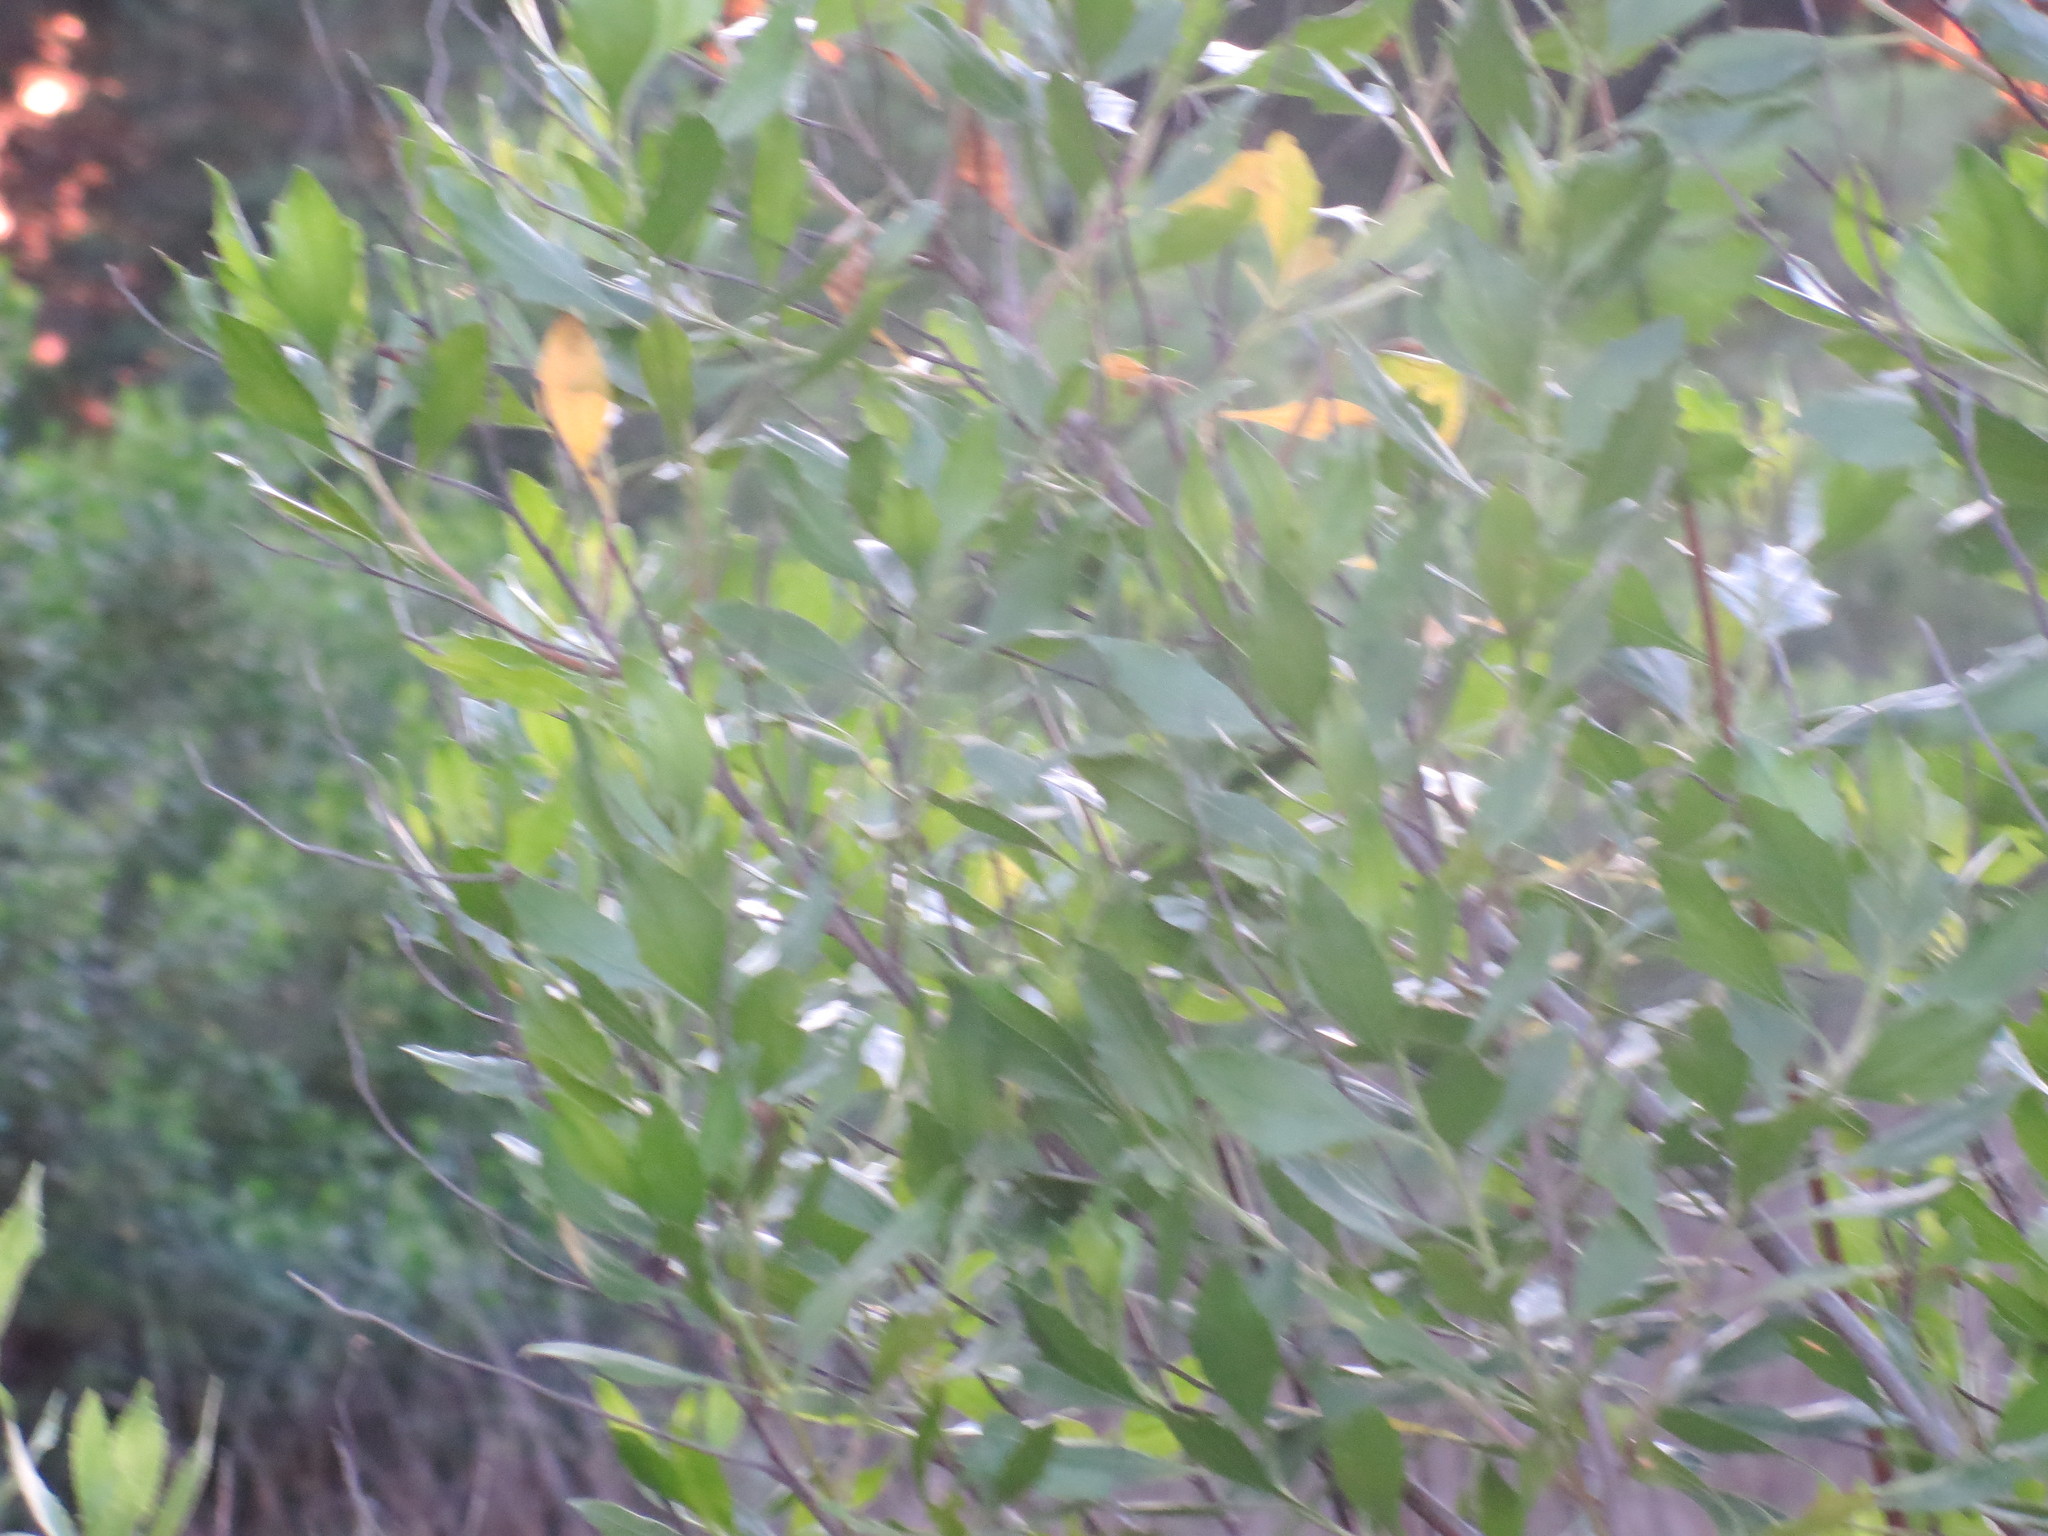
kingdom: Plantae
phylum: Tracheophyta
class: Magnoliopsida
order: Asterales
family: Asteraceae
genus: Baccharis
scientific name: Baccharis halimifolia
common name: Eastern baccharis
